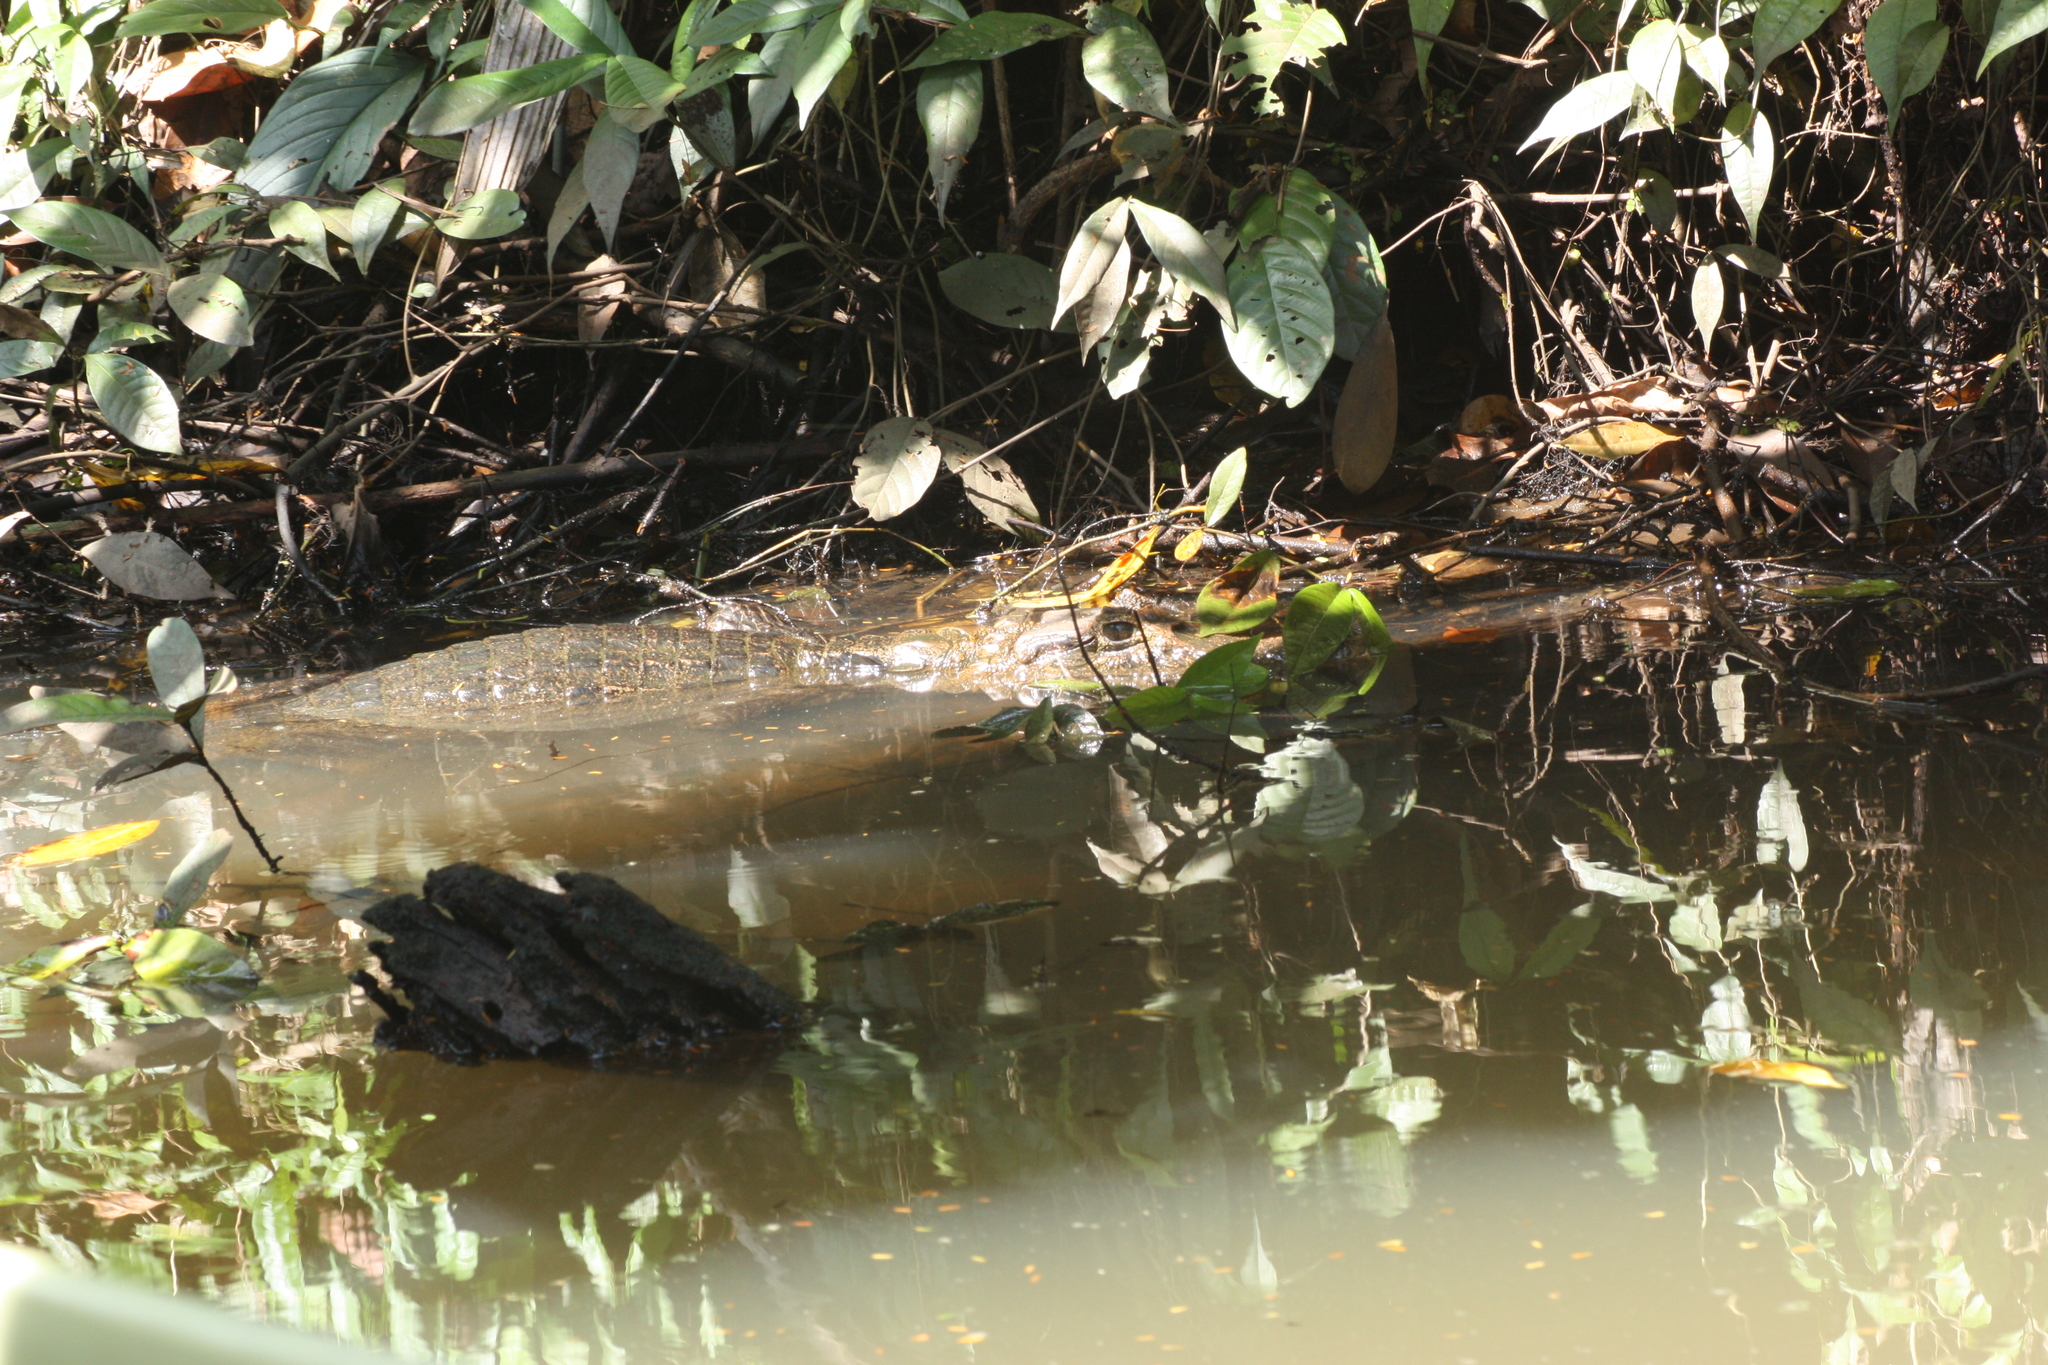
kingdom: Animalia
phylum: Chordata
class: Crocodylia
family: Alligatoridae
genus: Caiman
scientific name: Caiman crocodilus
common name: Common caiman
